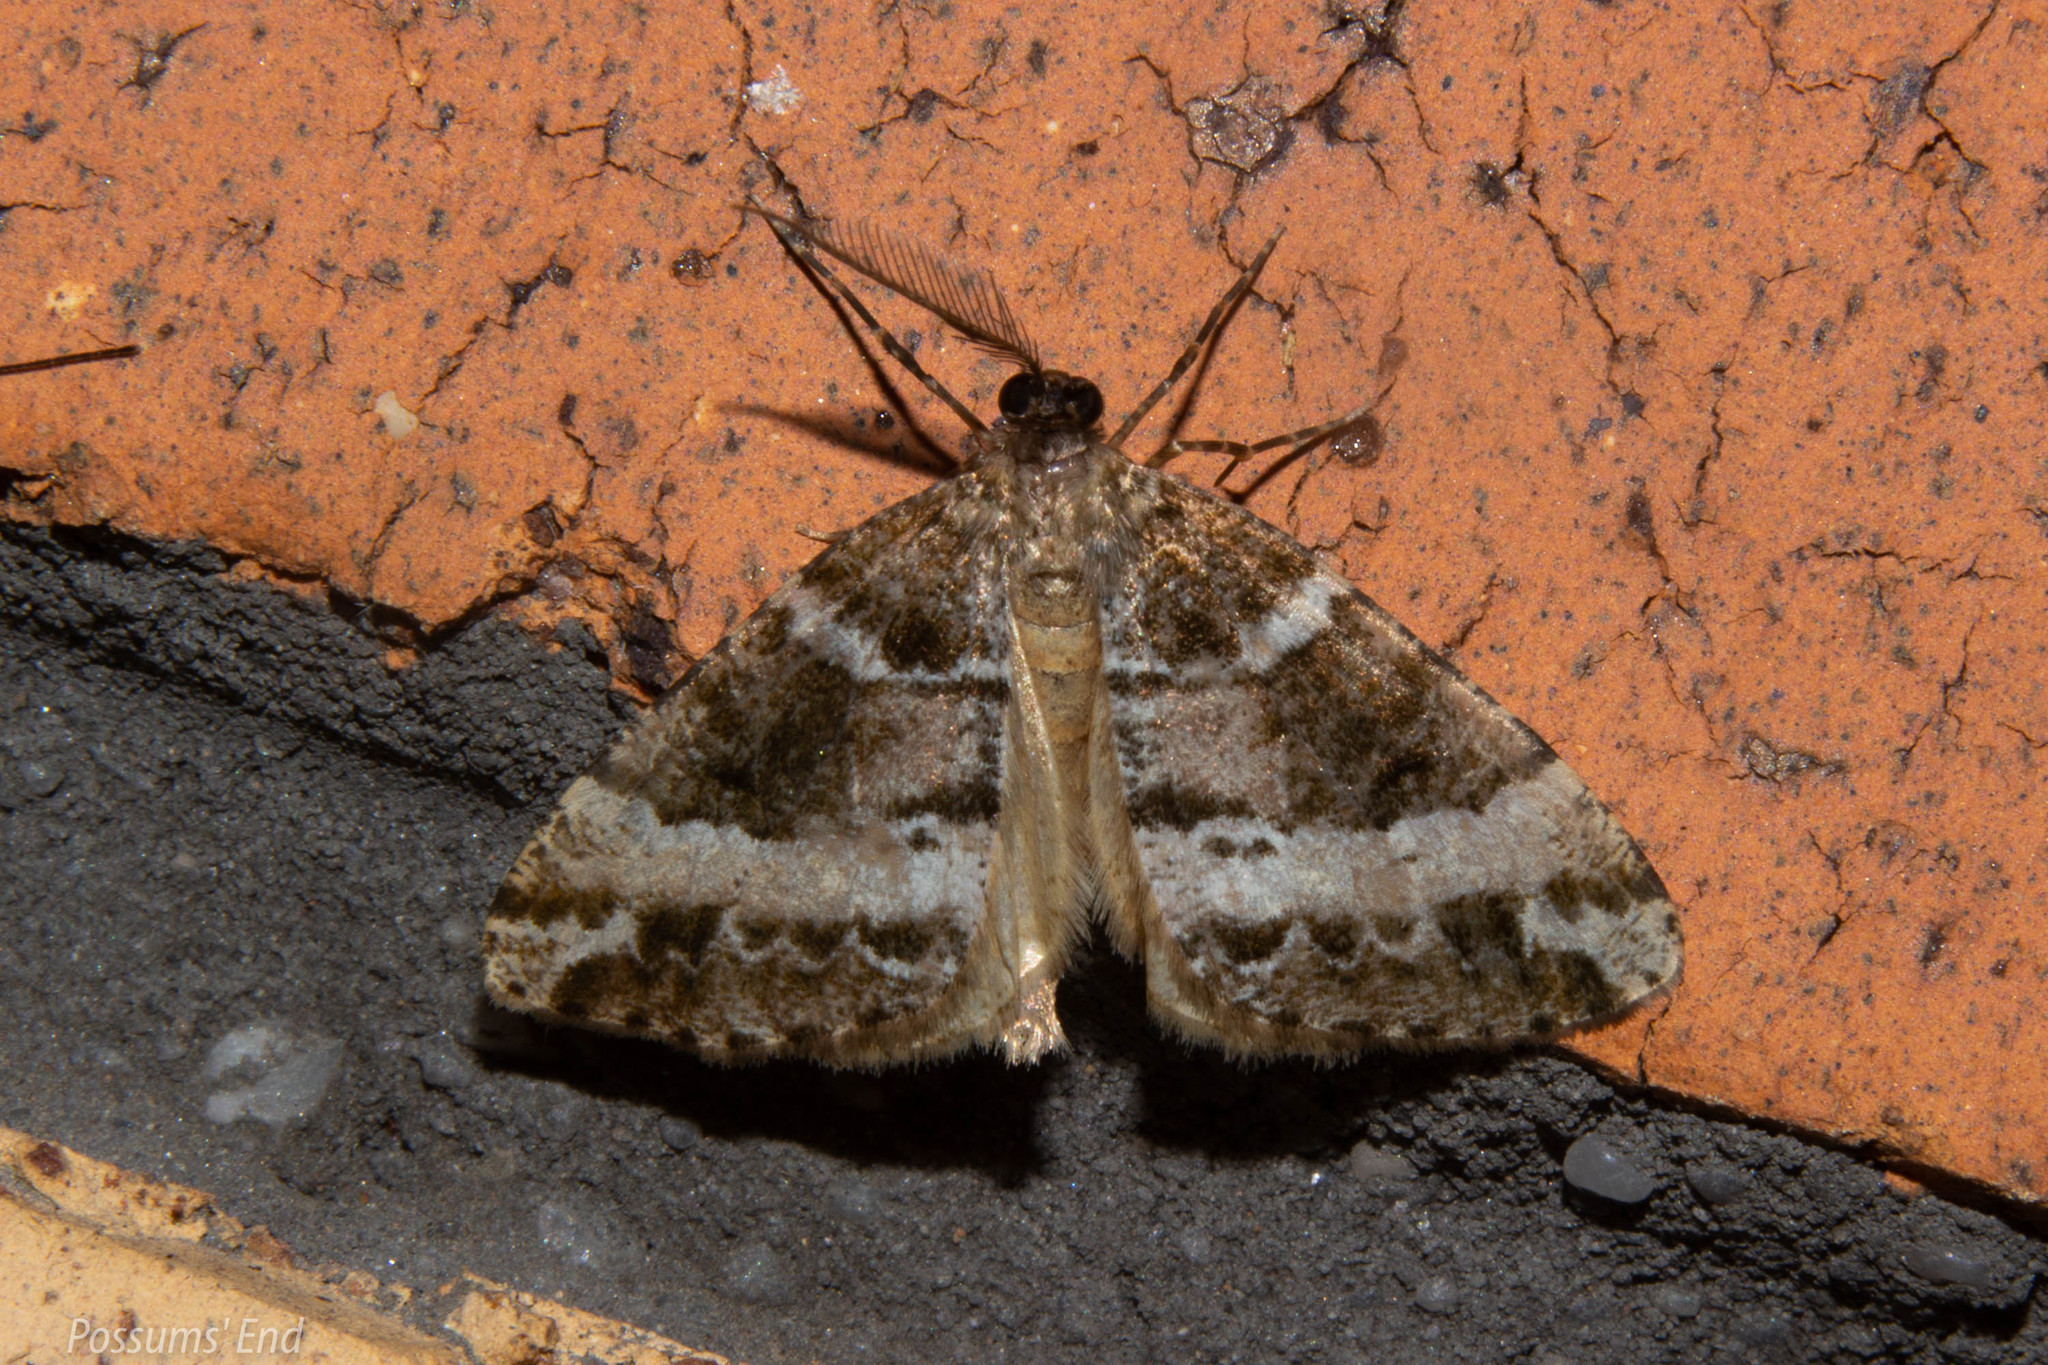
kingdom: Animalia
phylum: Arthropoda
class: Insecta
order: Lepidoptera
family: Geometridae
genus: Pseudocoremia
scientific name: Pseudocoremia
